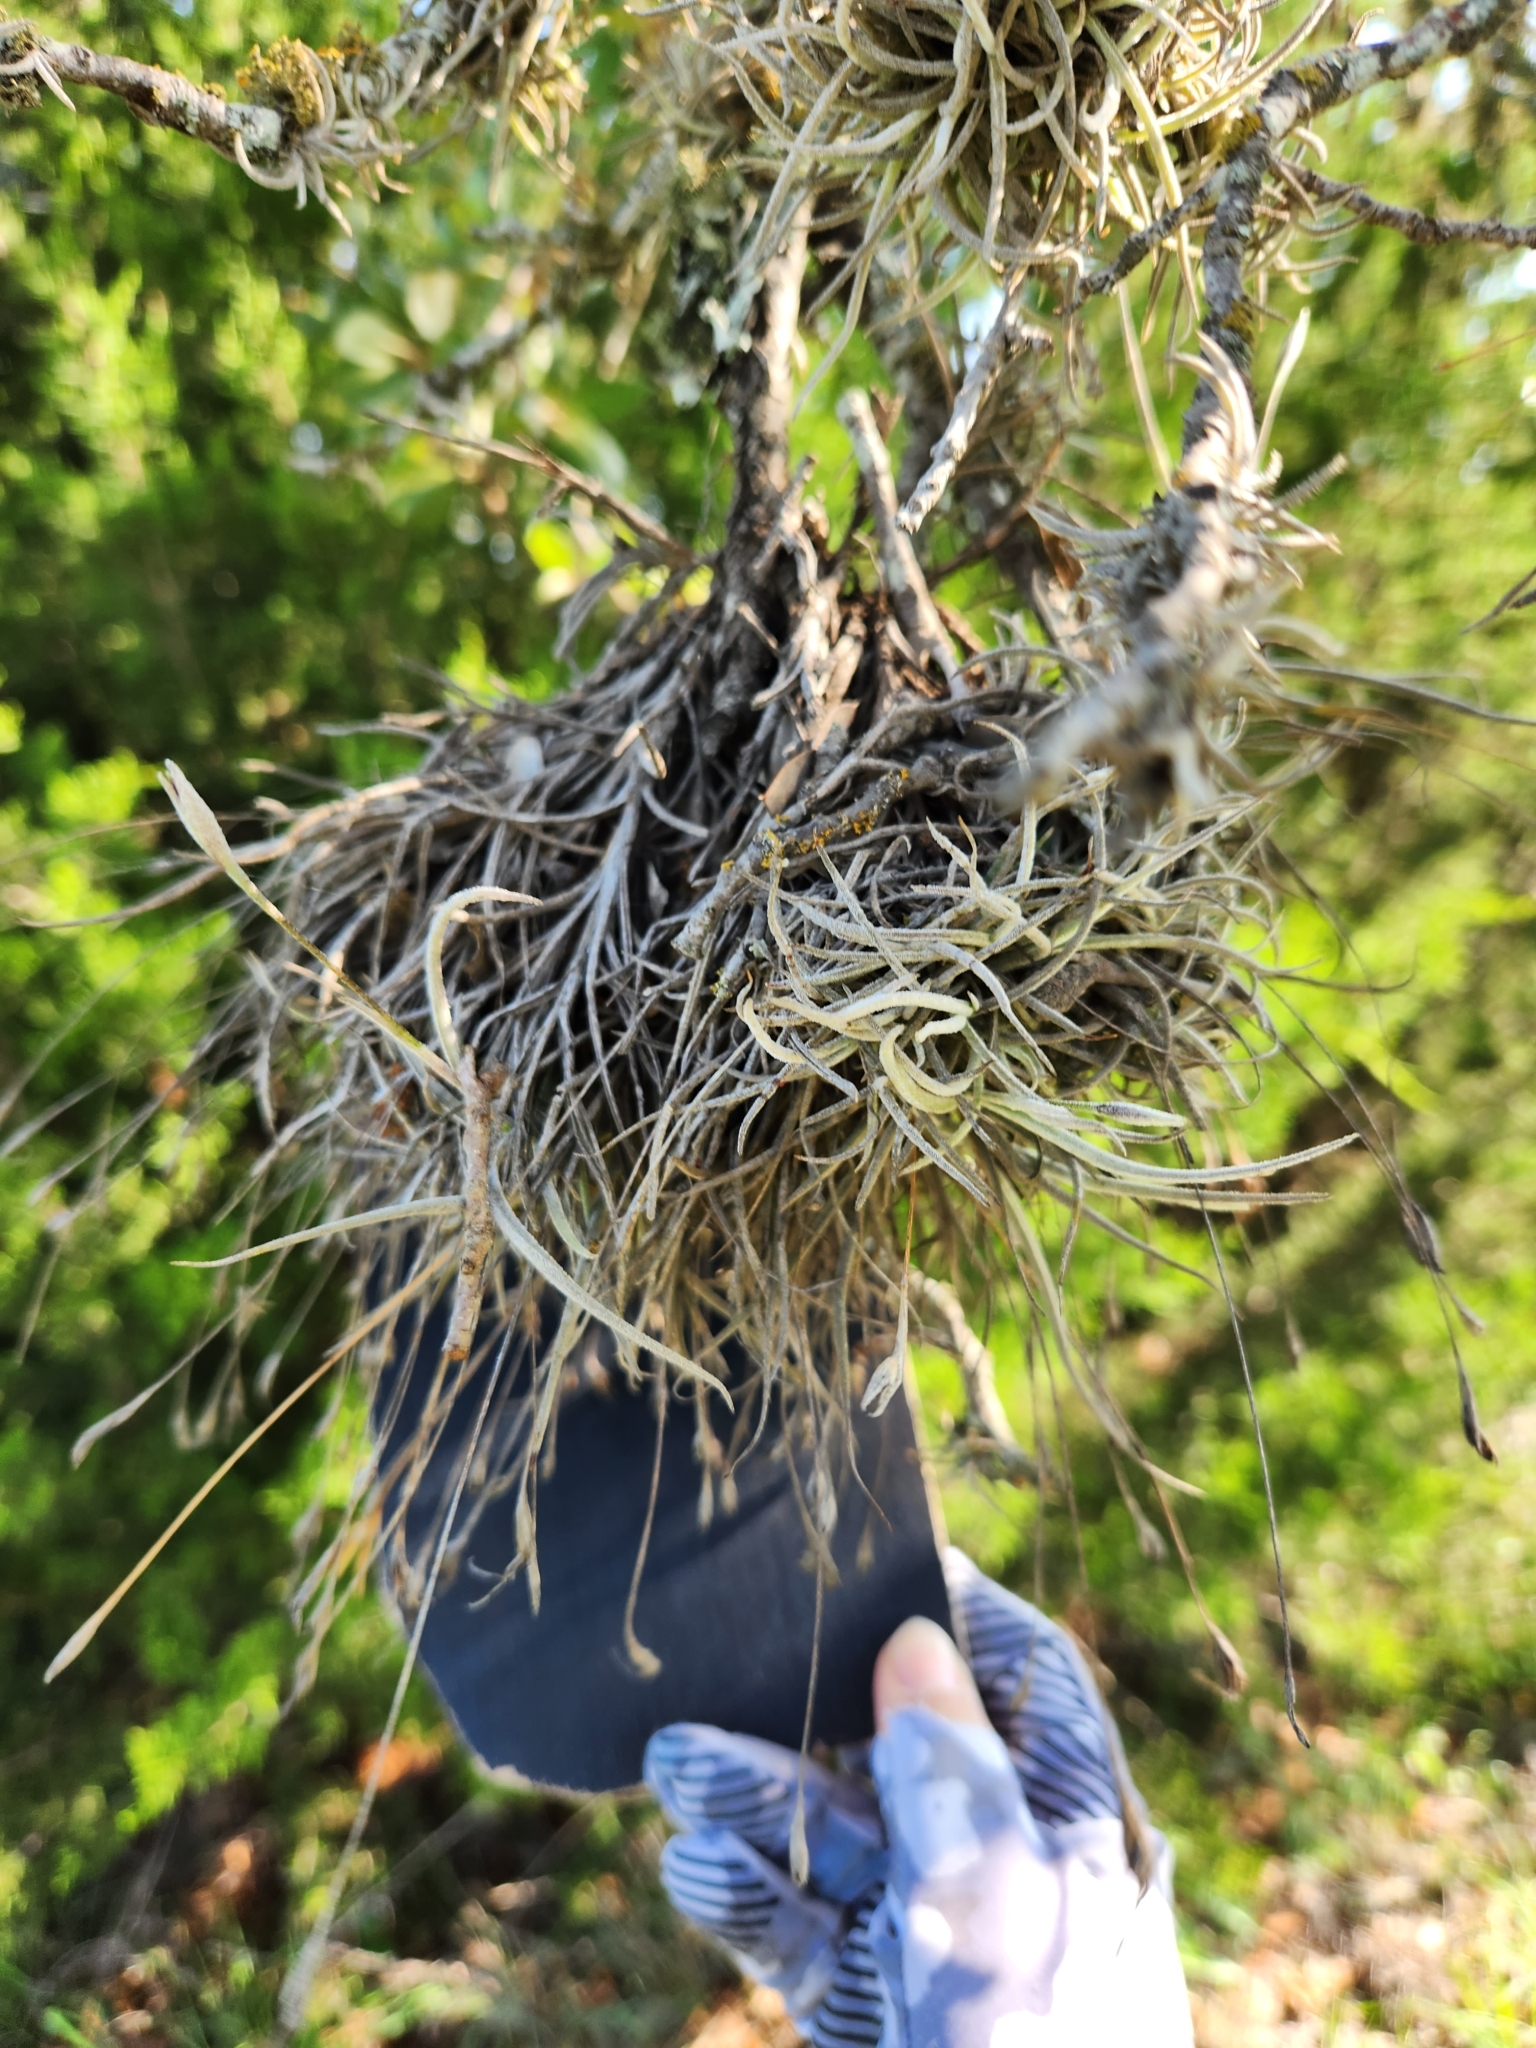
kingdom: Plantae
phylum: Tracheophyta
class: Liliopsida
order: Poales
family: Bromeliaceae
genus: Tillandsia
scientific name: Tillandsia recurvata
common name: Small ballmoss
